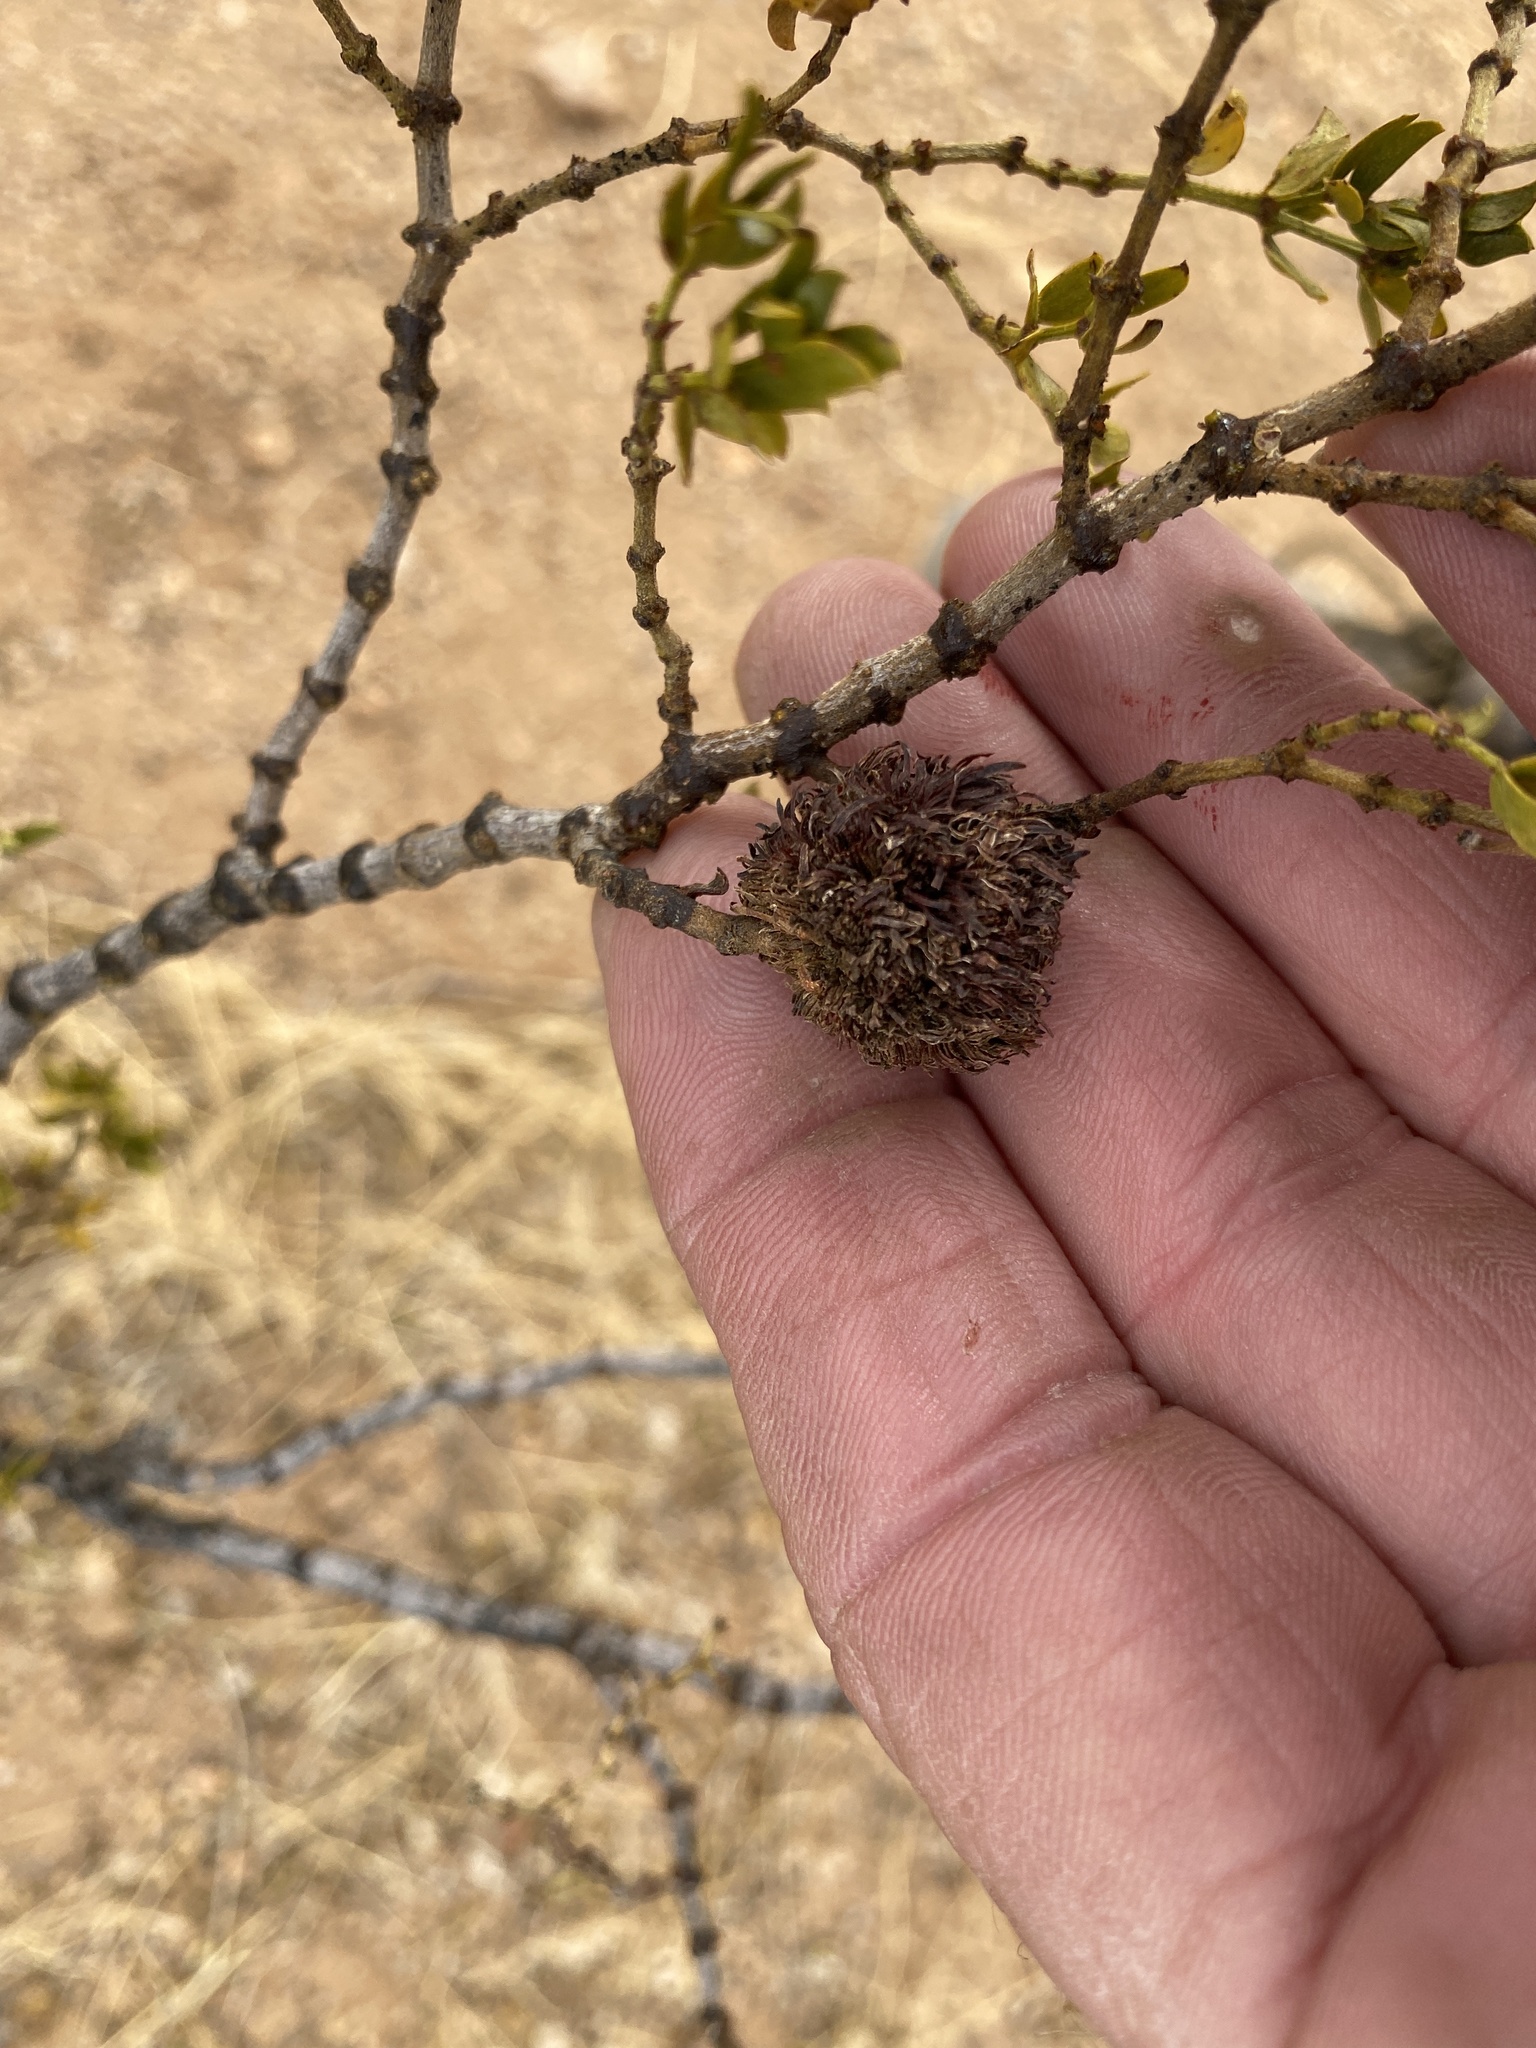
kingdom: Animalia
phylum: Arthropoda
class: Insecta
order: Diptera
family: Cecidomyiidae
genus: Asphondylia
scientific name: Asphondylia auripila
